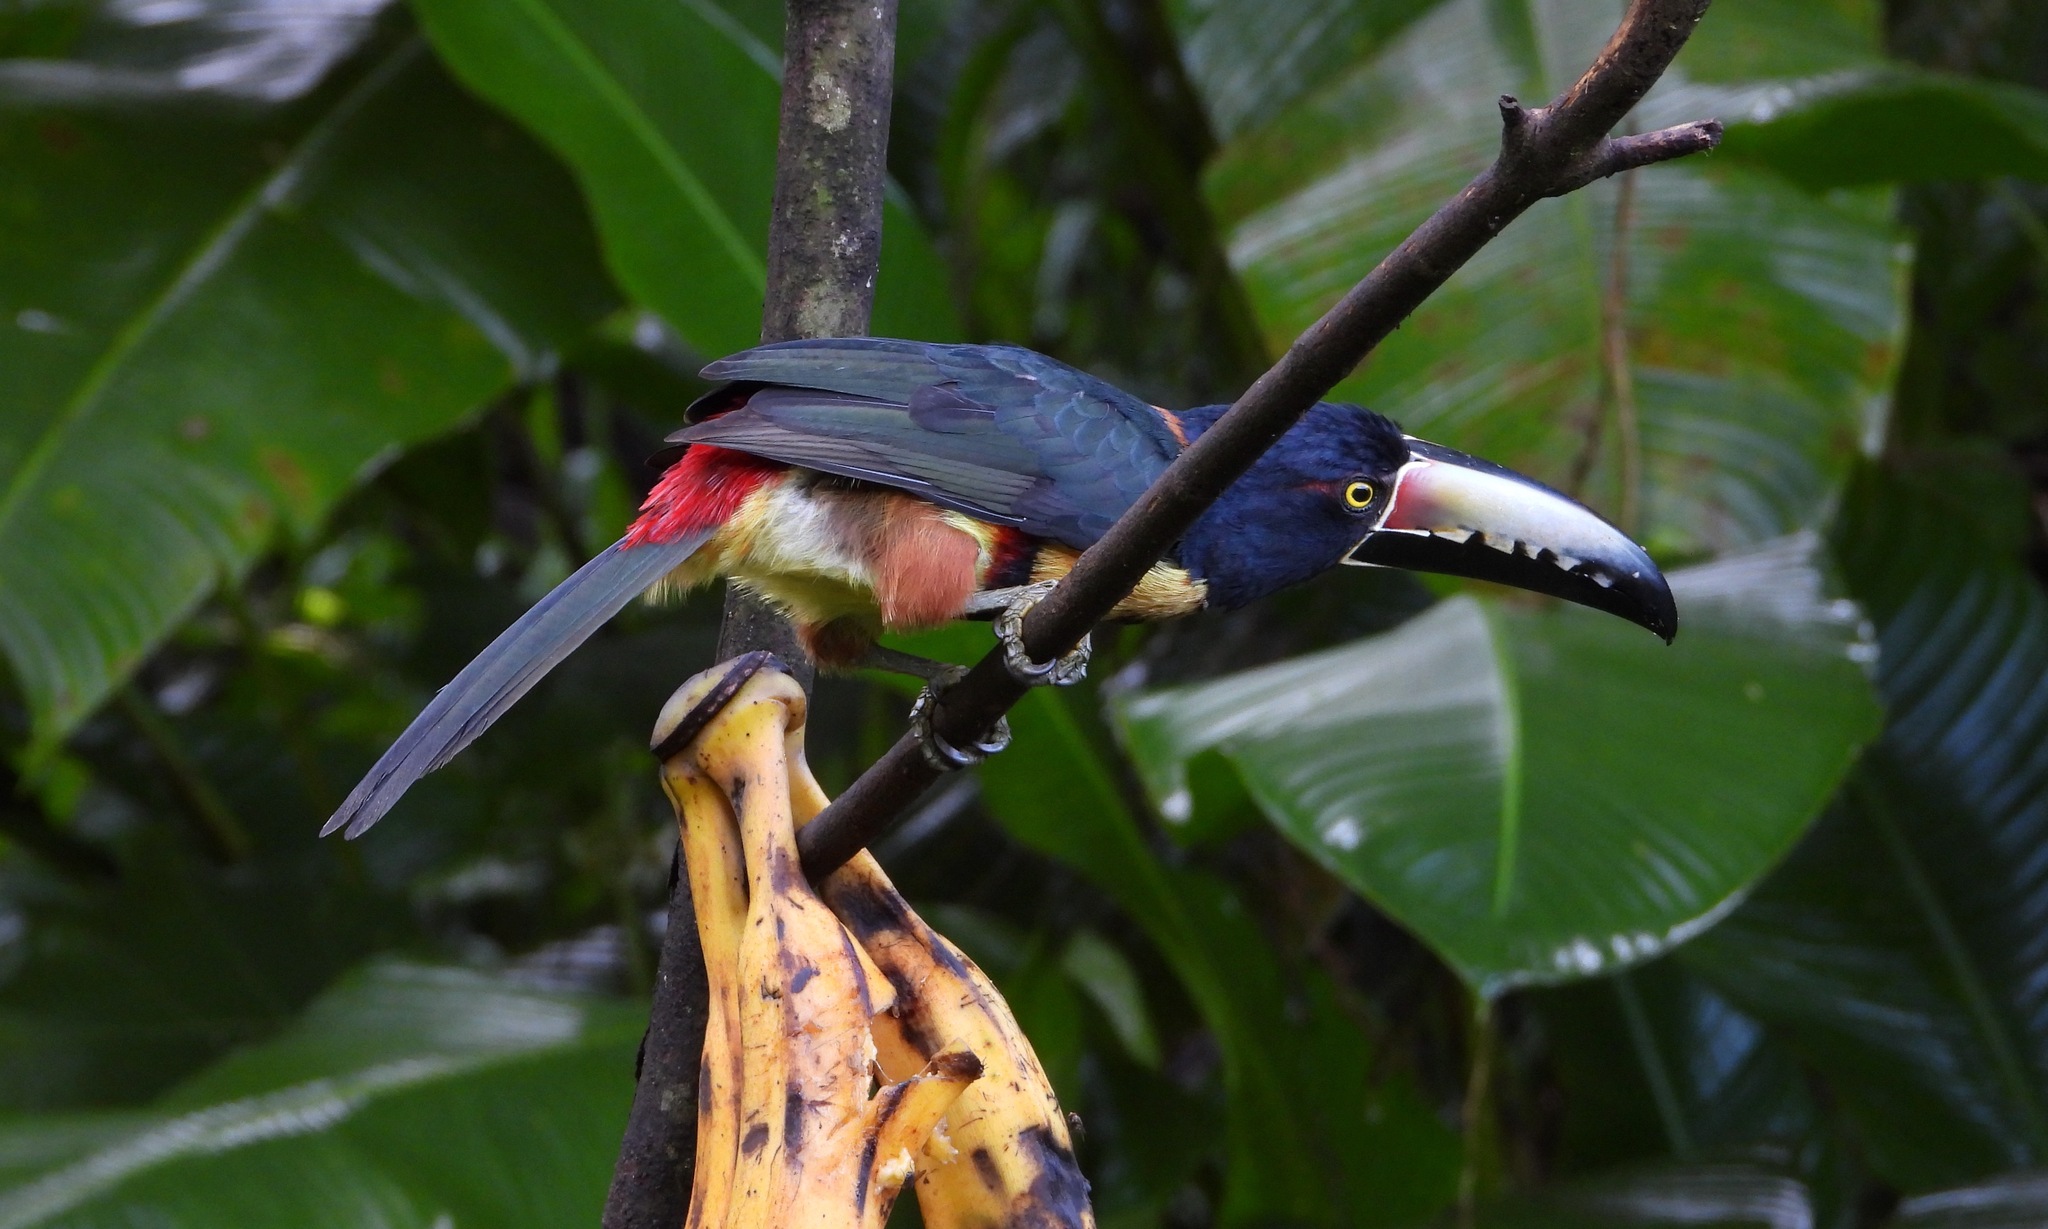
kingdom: Animalia
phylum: Chordata
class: Aves
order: Piciformes
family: Ramphastidae
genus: Pteroglossus
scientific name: Pteroglossus torquatus
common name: Collared aracari
